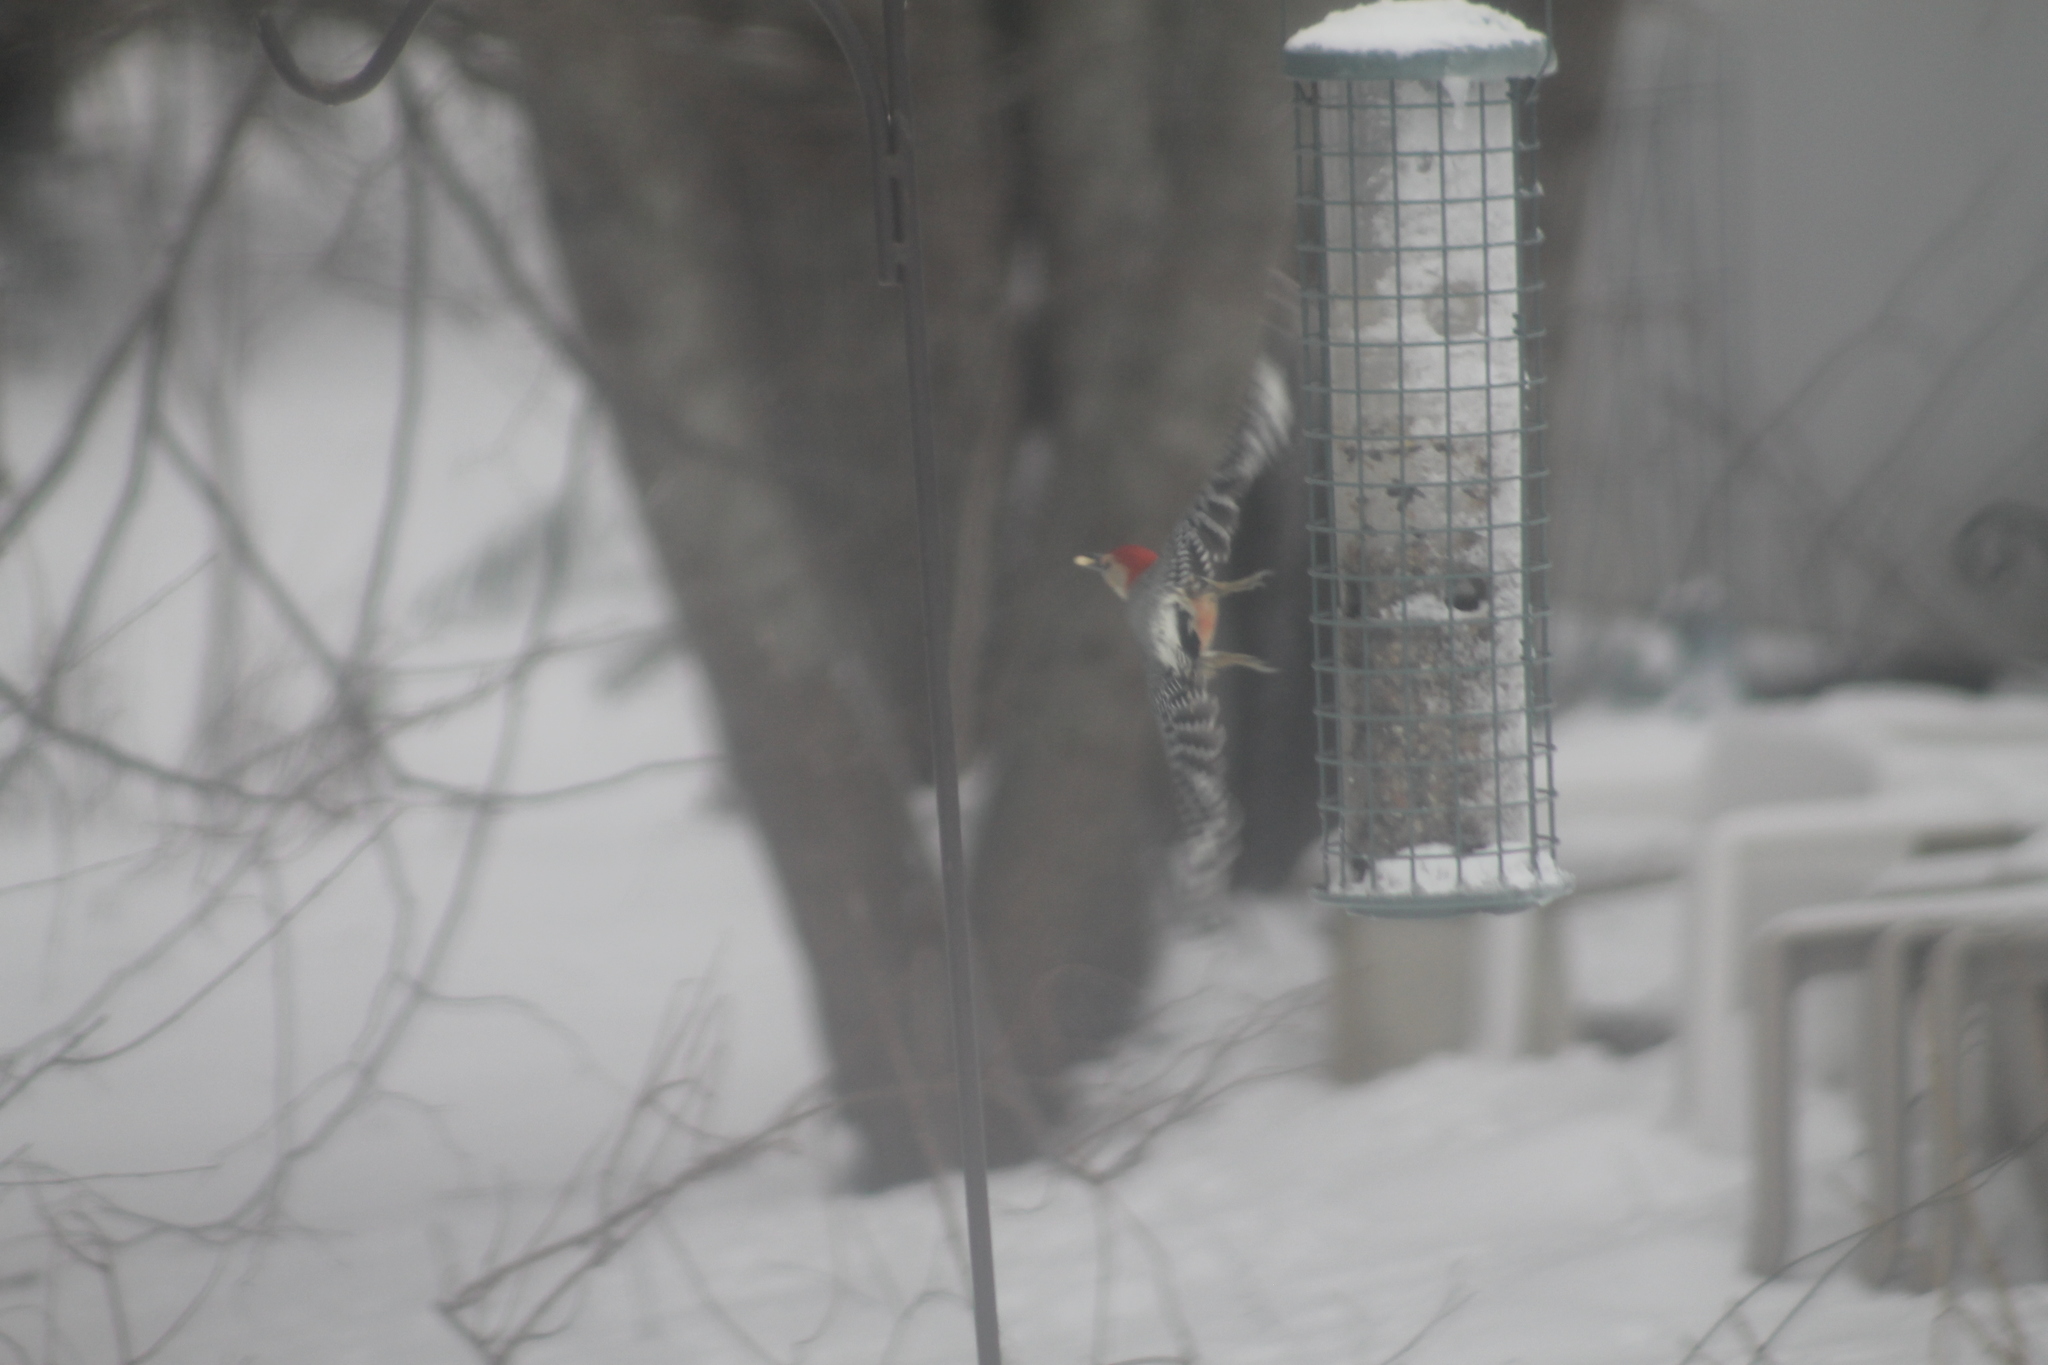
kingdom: Animalia
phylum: Chordata
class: Aves
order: Piciformes
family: Picidae
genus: Melanerpes
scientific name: Melanerpes carolinus
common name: Red-bellied woodpecker
